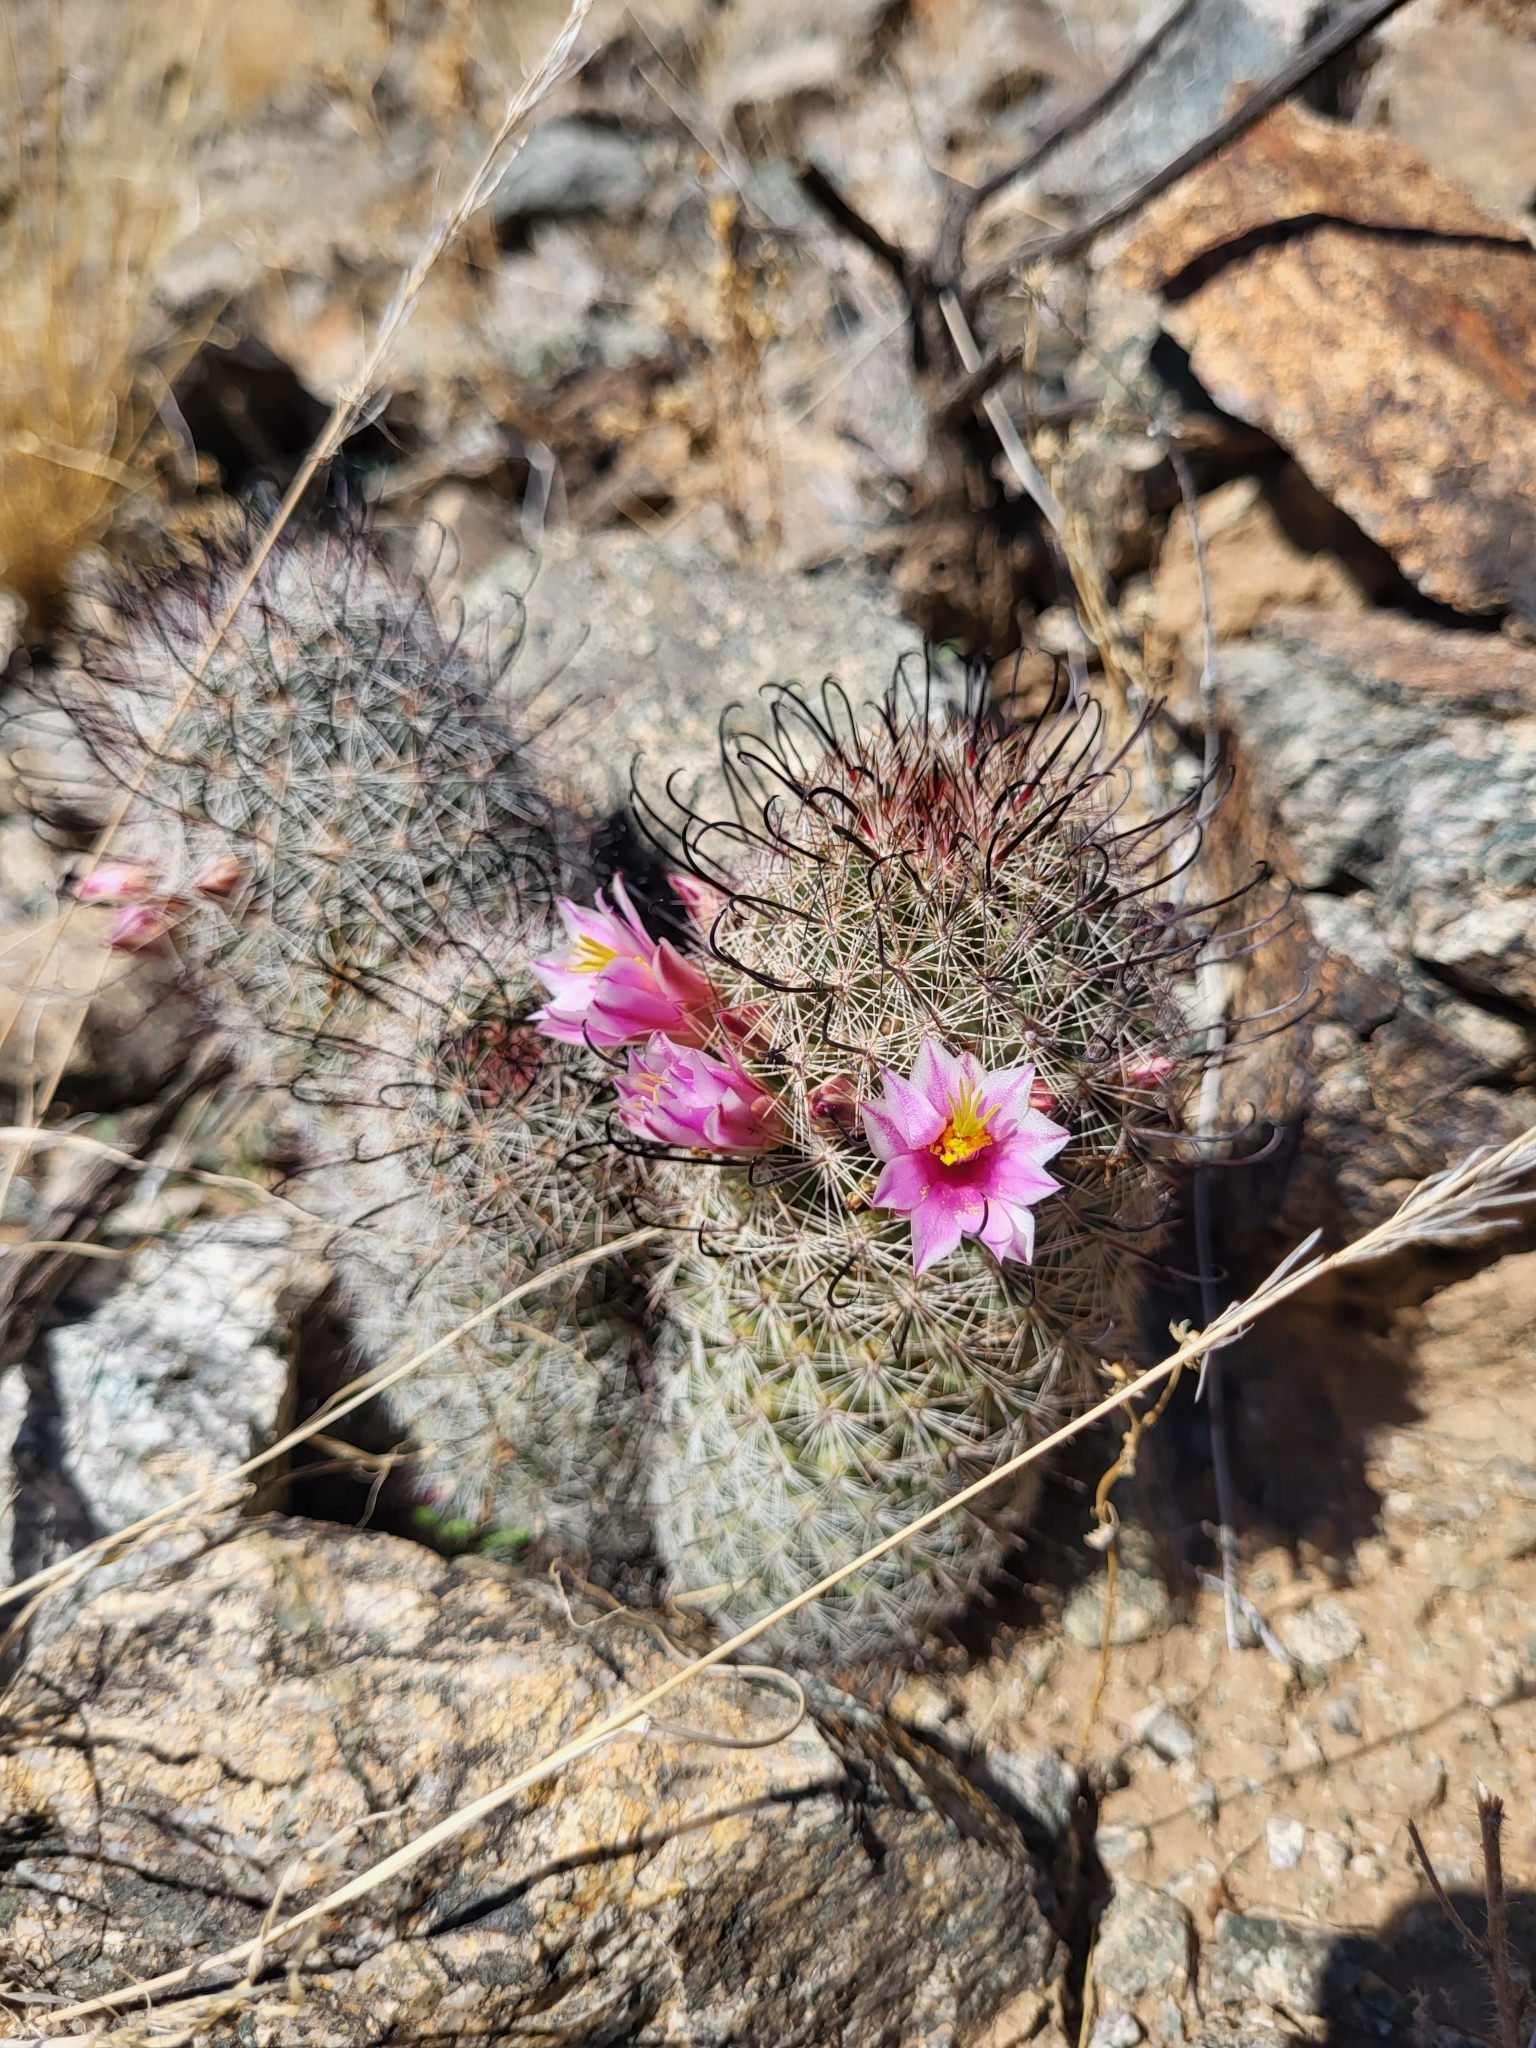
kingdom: Plantae
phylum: Tracheophyta
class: Magnoliopsida
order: Caryophyllales
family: Cactaceae
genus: Cochemiea
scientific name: Cochemiea grahamii
